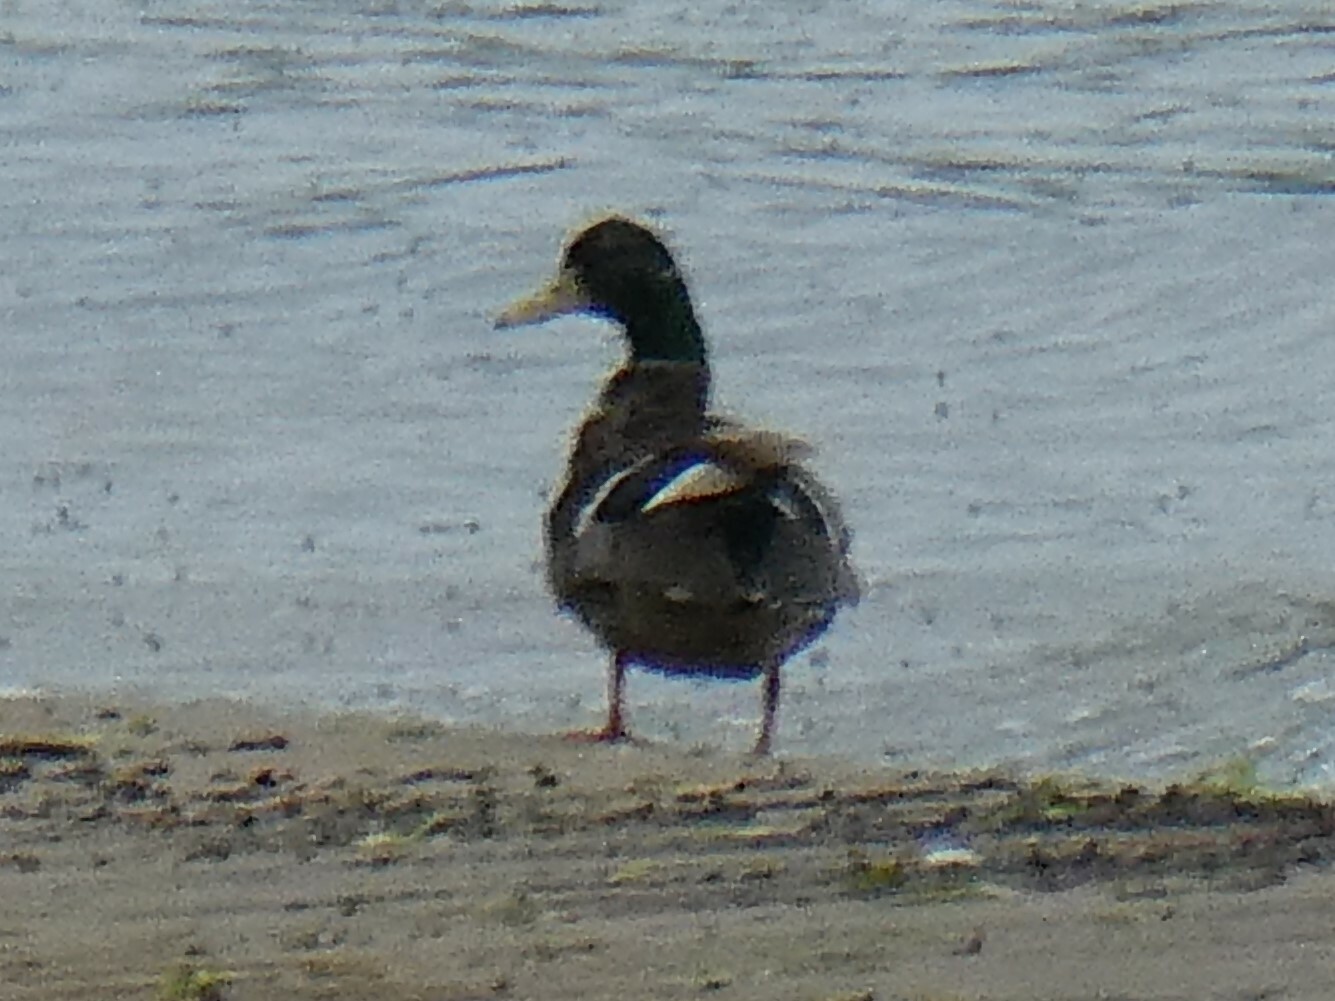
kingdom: Animalia
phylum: Chordata
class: Aves
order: Anseriformes
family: Anatidae
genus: Anas
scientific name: Anas platyrhynchos
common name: Mallard
